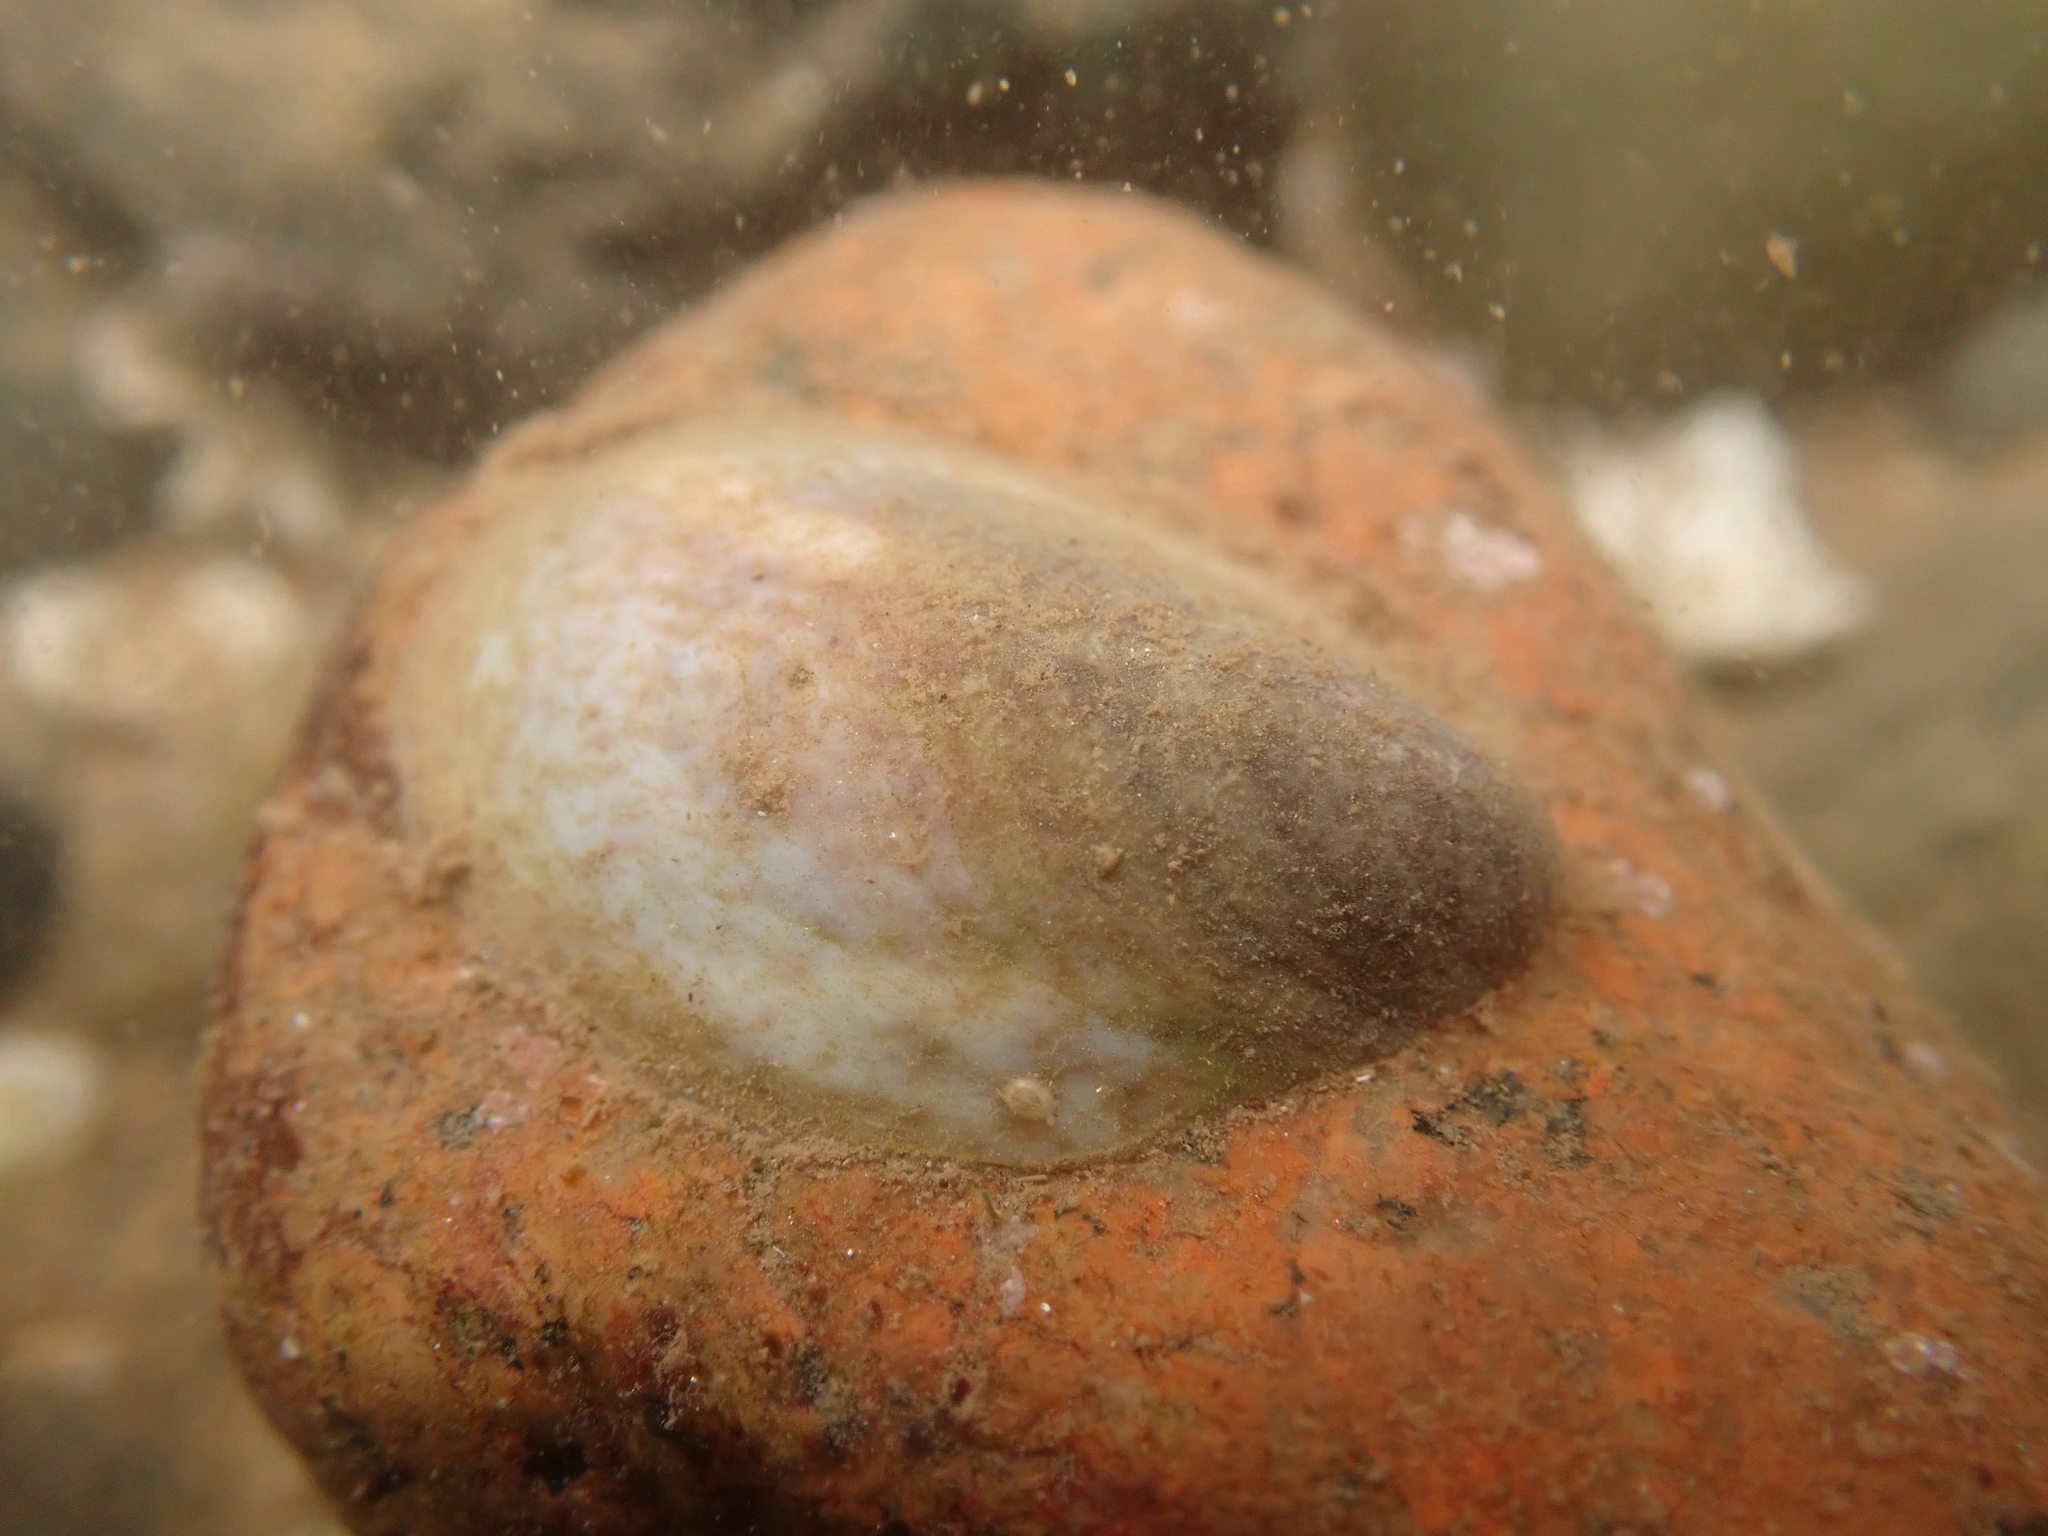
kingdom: Animalia
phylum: Mollusca
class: Gastropoda
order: Littorinimorpha
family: Calyptraeidae
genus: Crepidula
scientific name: Crepidula fornicata
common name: Slipper limpet
